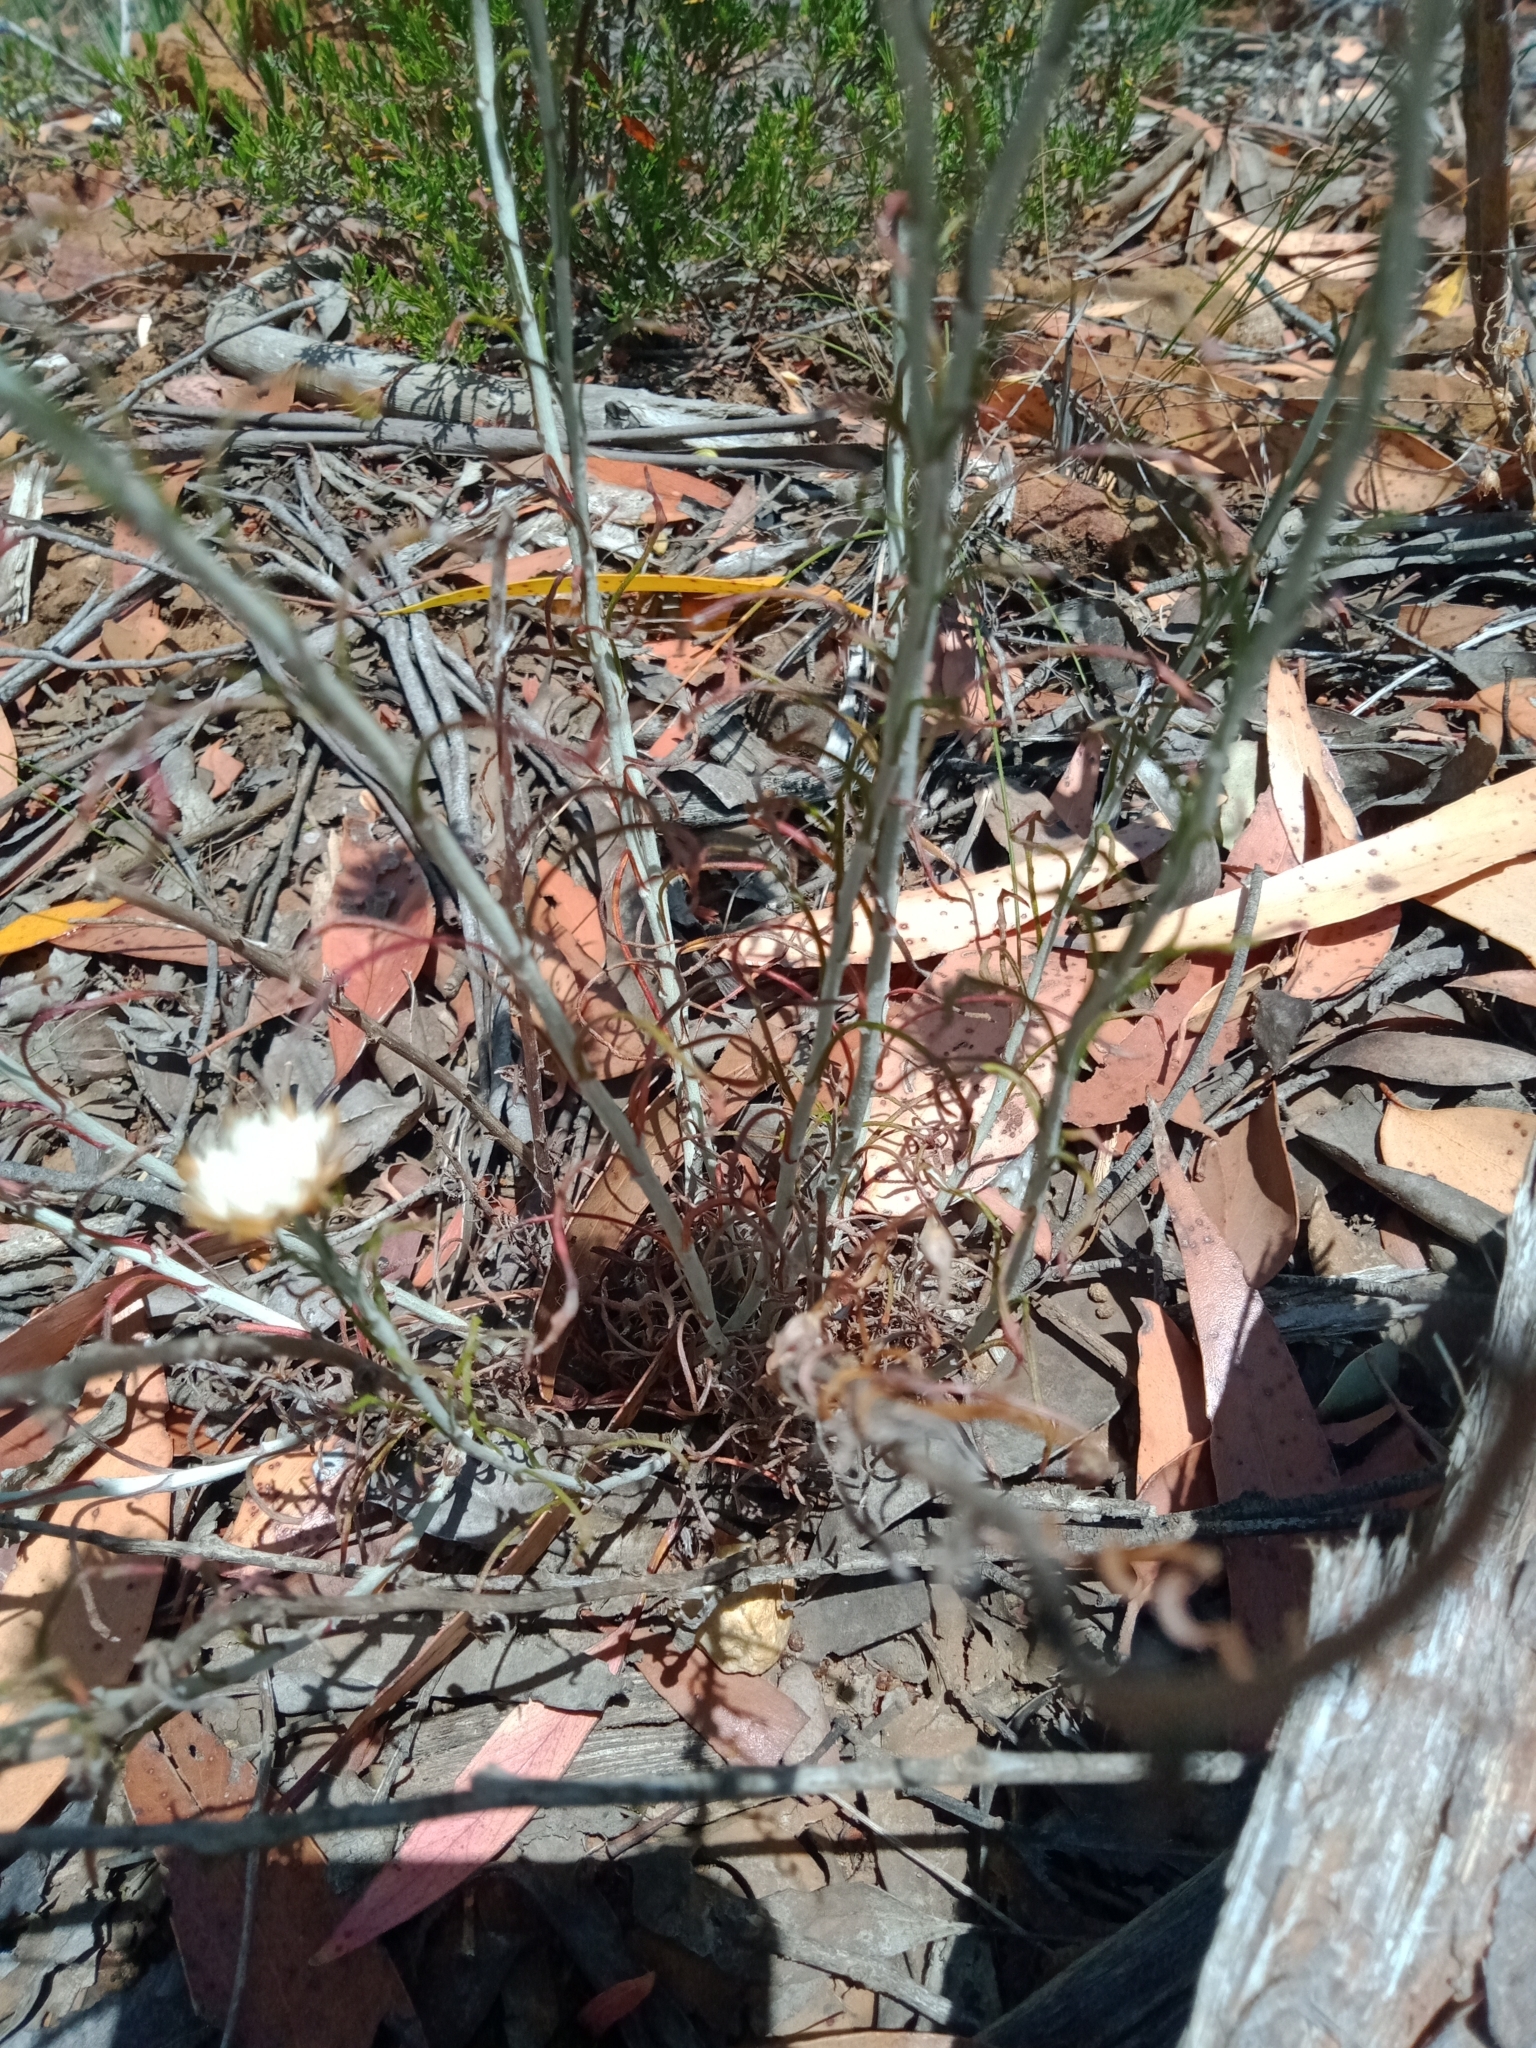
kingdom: Plantae
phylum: Tracheophyta
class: Magnoliopsida
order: Asterales
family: Asteraceae
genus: Chrysocephalum
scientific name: Chrysocephalum baxteri
